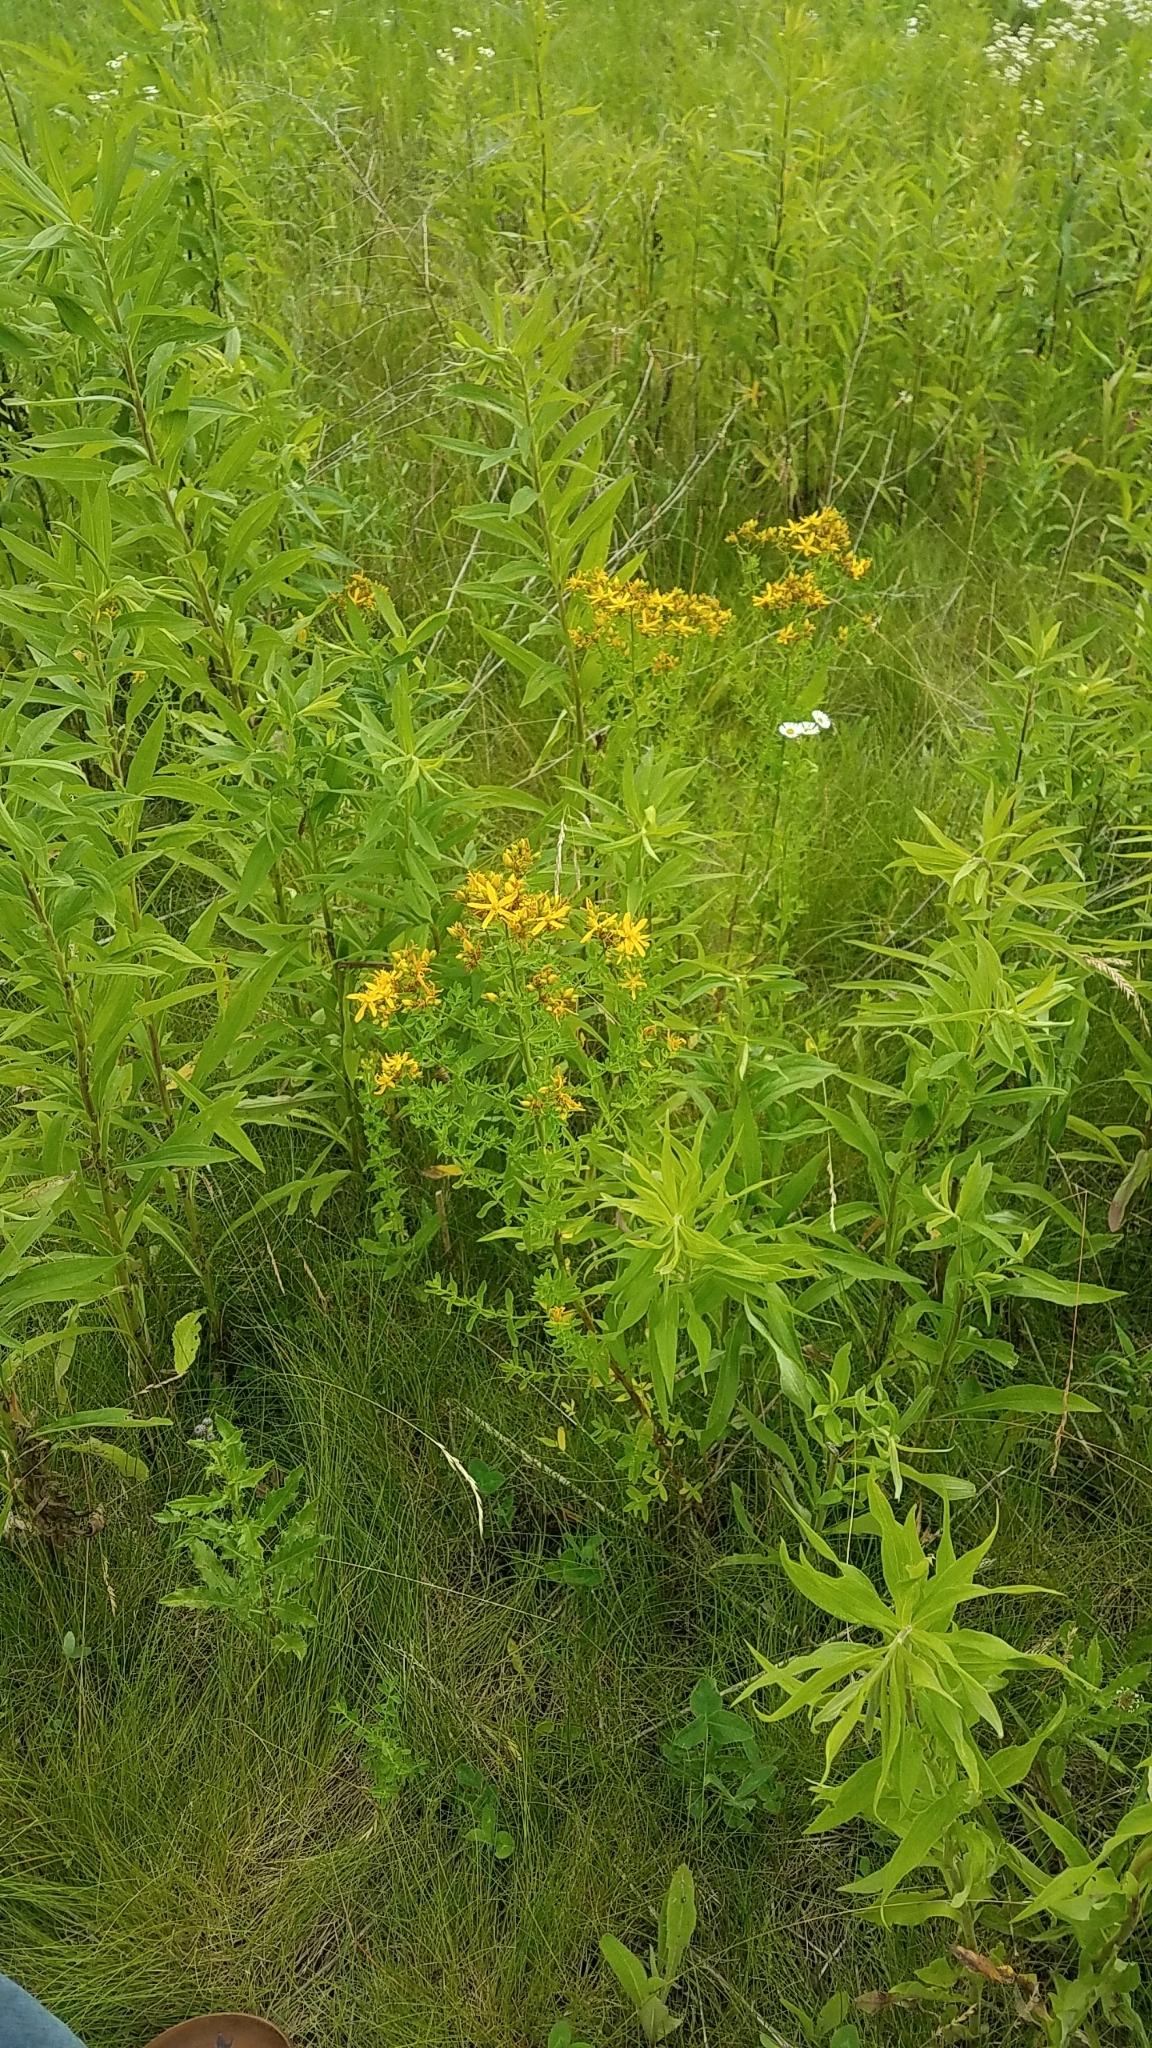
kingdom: Plantae
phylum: Tracheophyta
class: Magnoliopsida
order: Malpighiales
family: Hypericaceae
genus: Hypericum
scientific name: Hypericum perforatum
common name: Common st. johnswort
